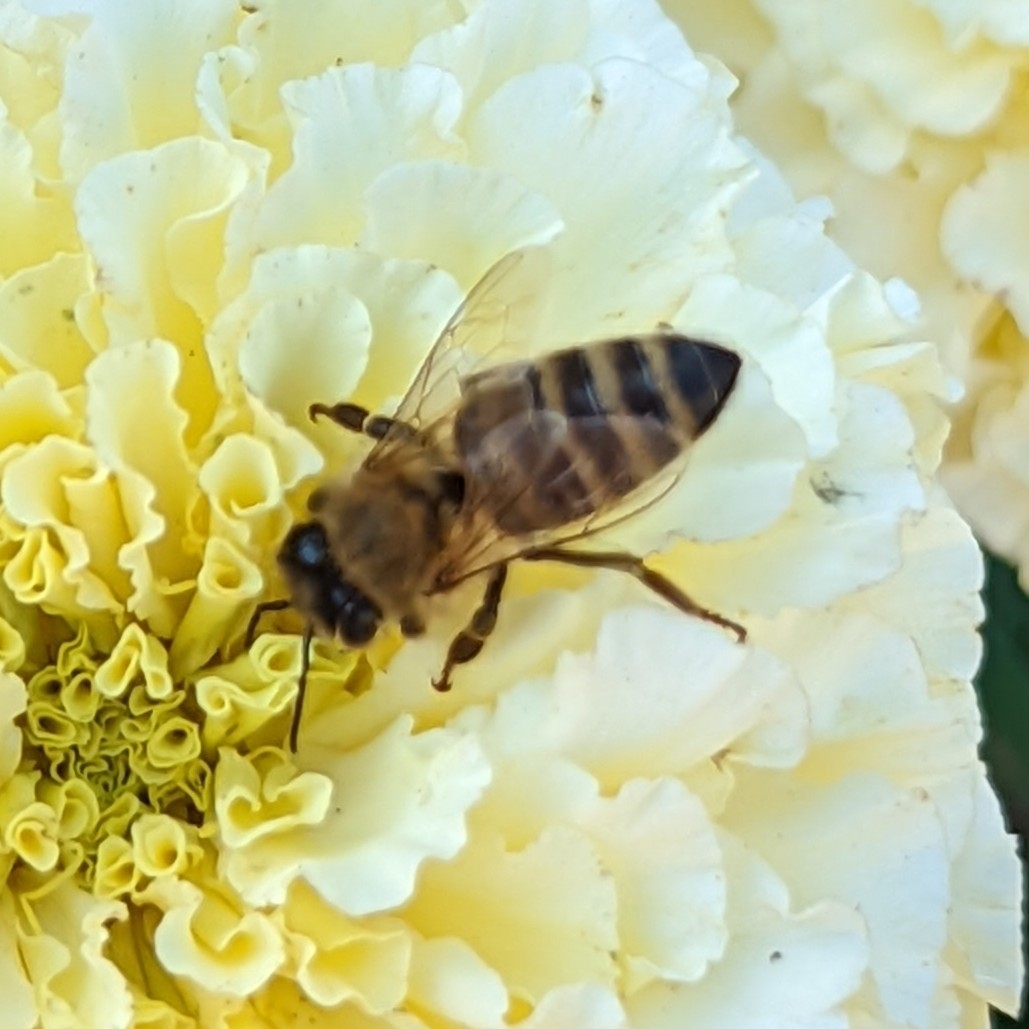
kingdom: Animalia
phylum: Arthropoda
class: Insecta
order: Hymenoptera
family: Apidae
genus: Apis
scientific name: Apis mellifera
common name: Honey bee
